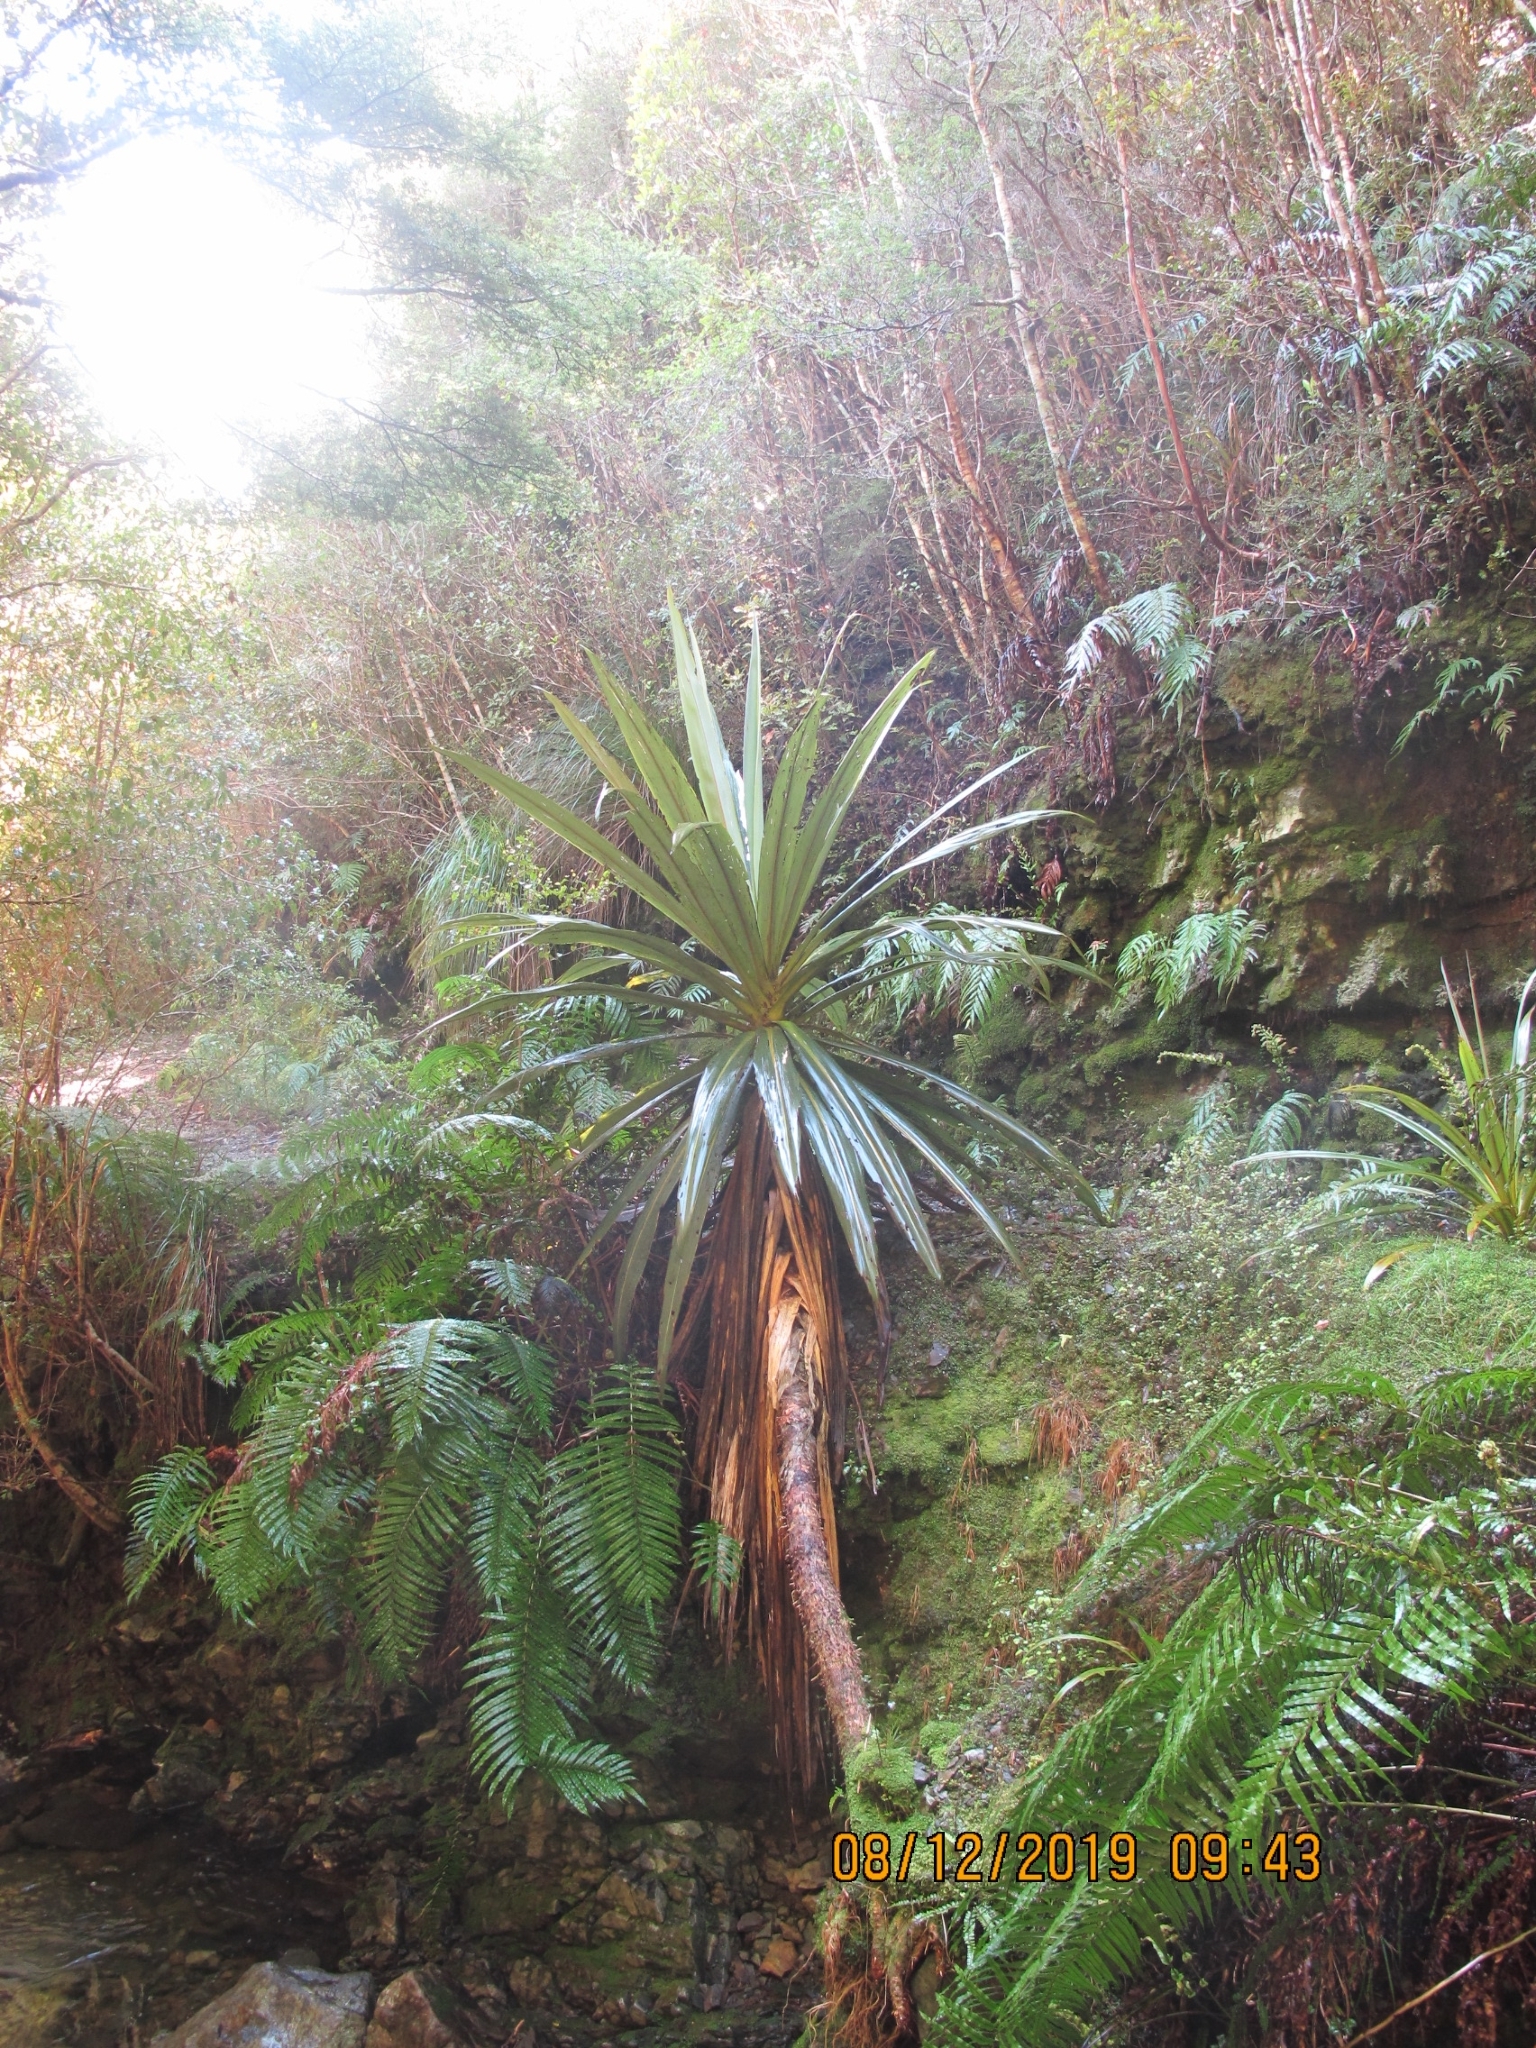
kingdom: Plantae
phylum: Tracheophyta
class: Liliopsida
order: Asparagales
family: Asparagaceae
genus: Cordyline
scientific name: Cordyline indivisa
